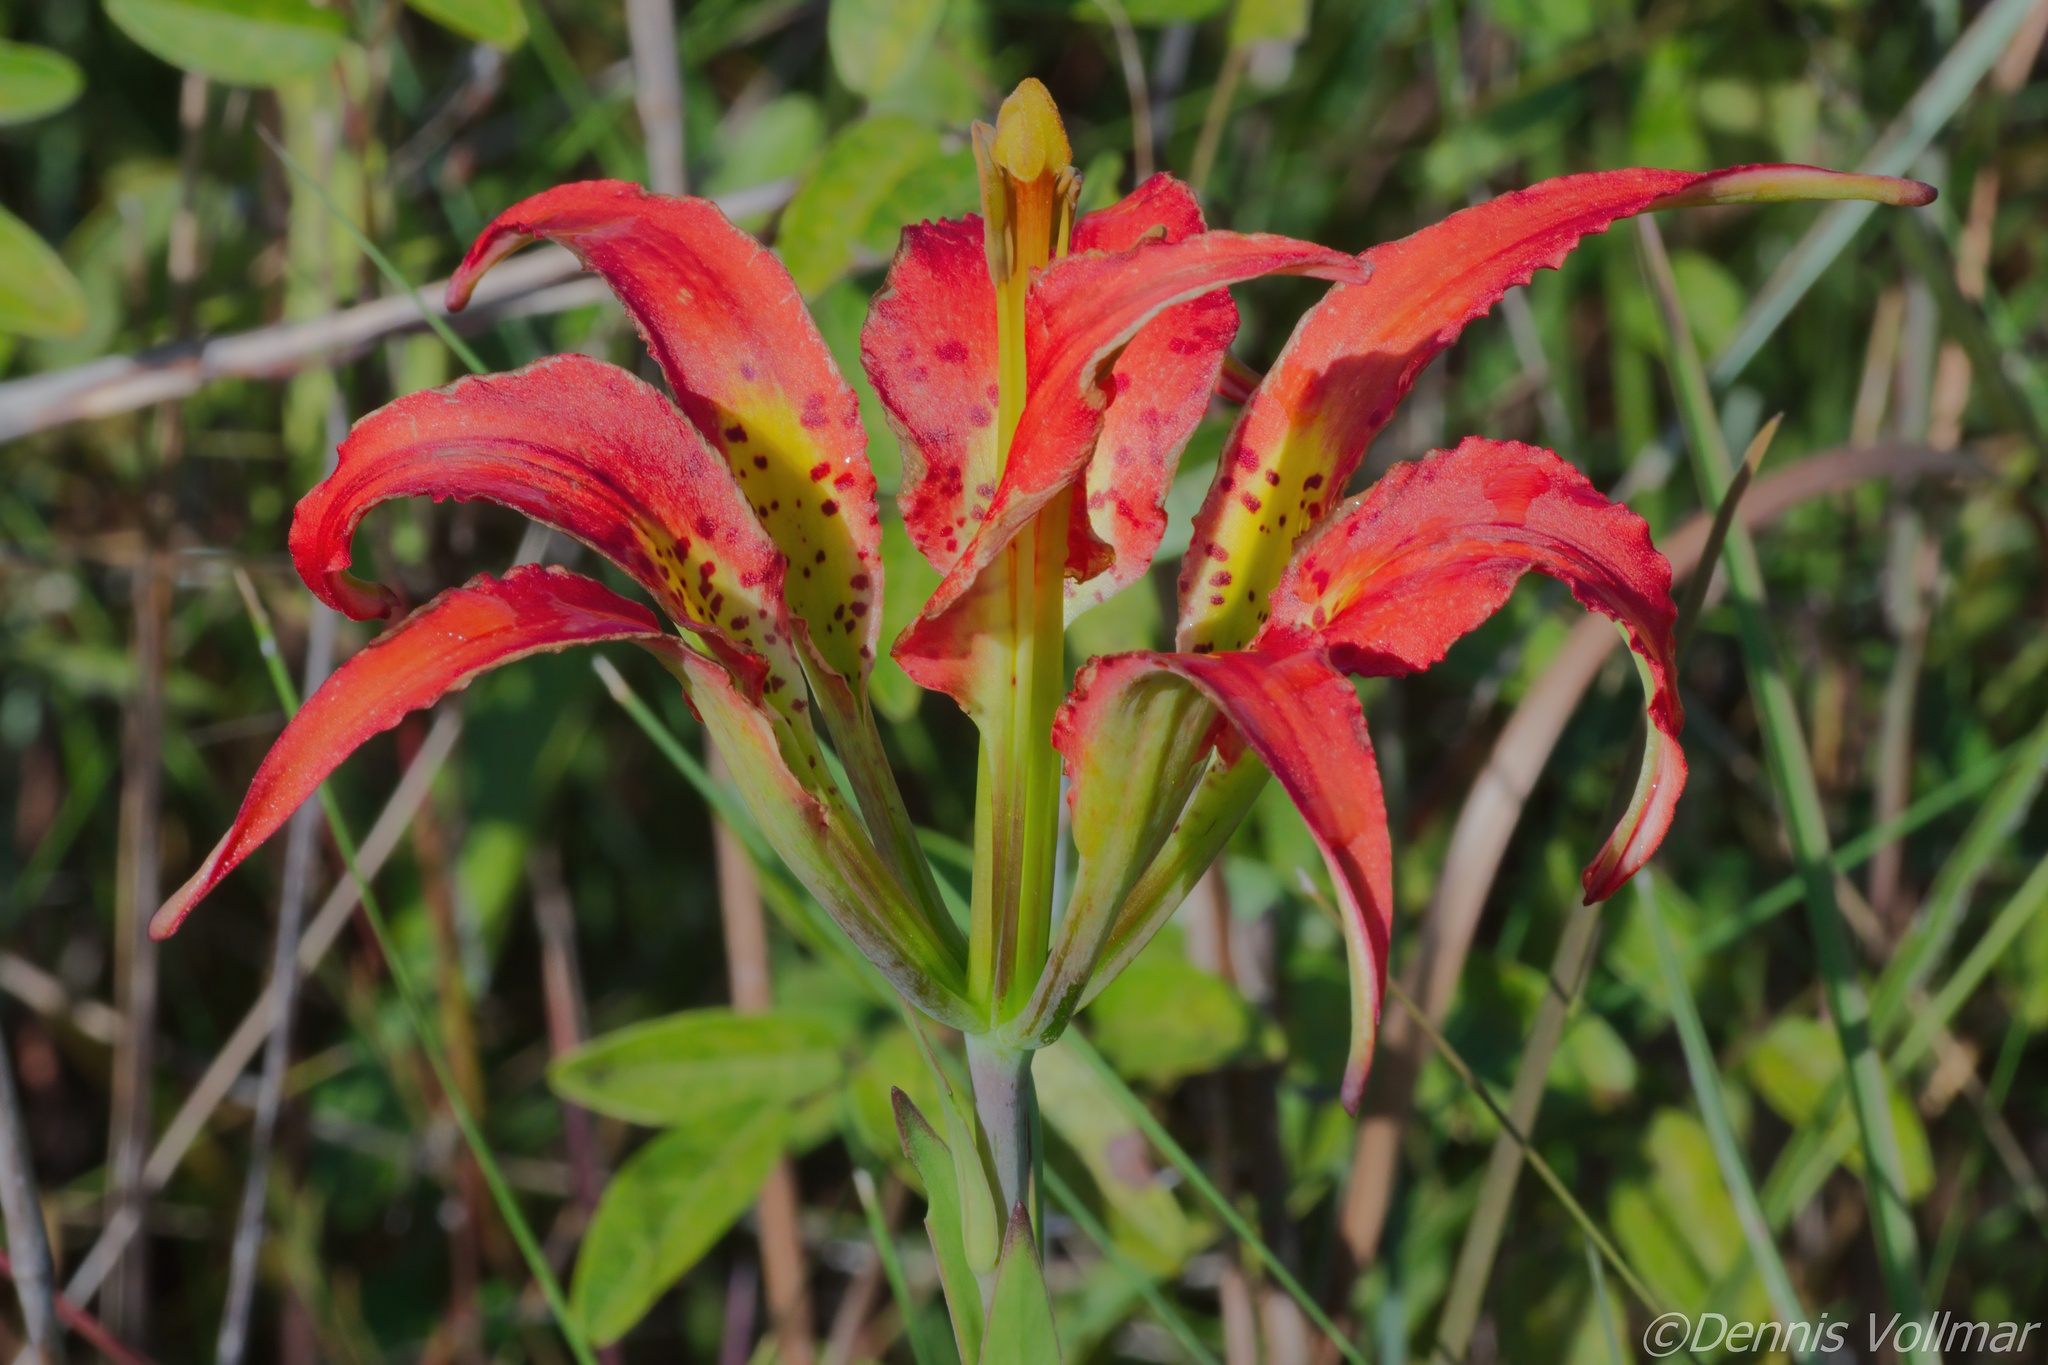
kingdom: Plantae
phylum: Tracheophyta
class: Liliopsida
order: Liliales
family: Liliaceae
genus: Lilium
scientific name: Lilium catesbaei
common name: Catesby's lily
